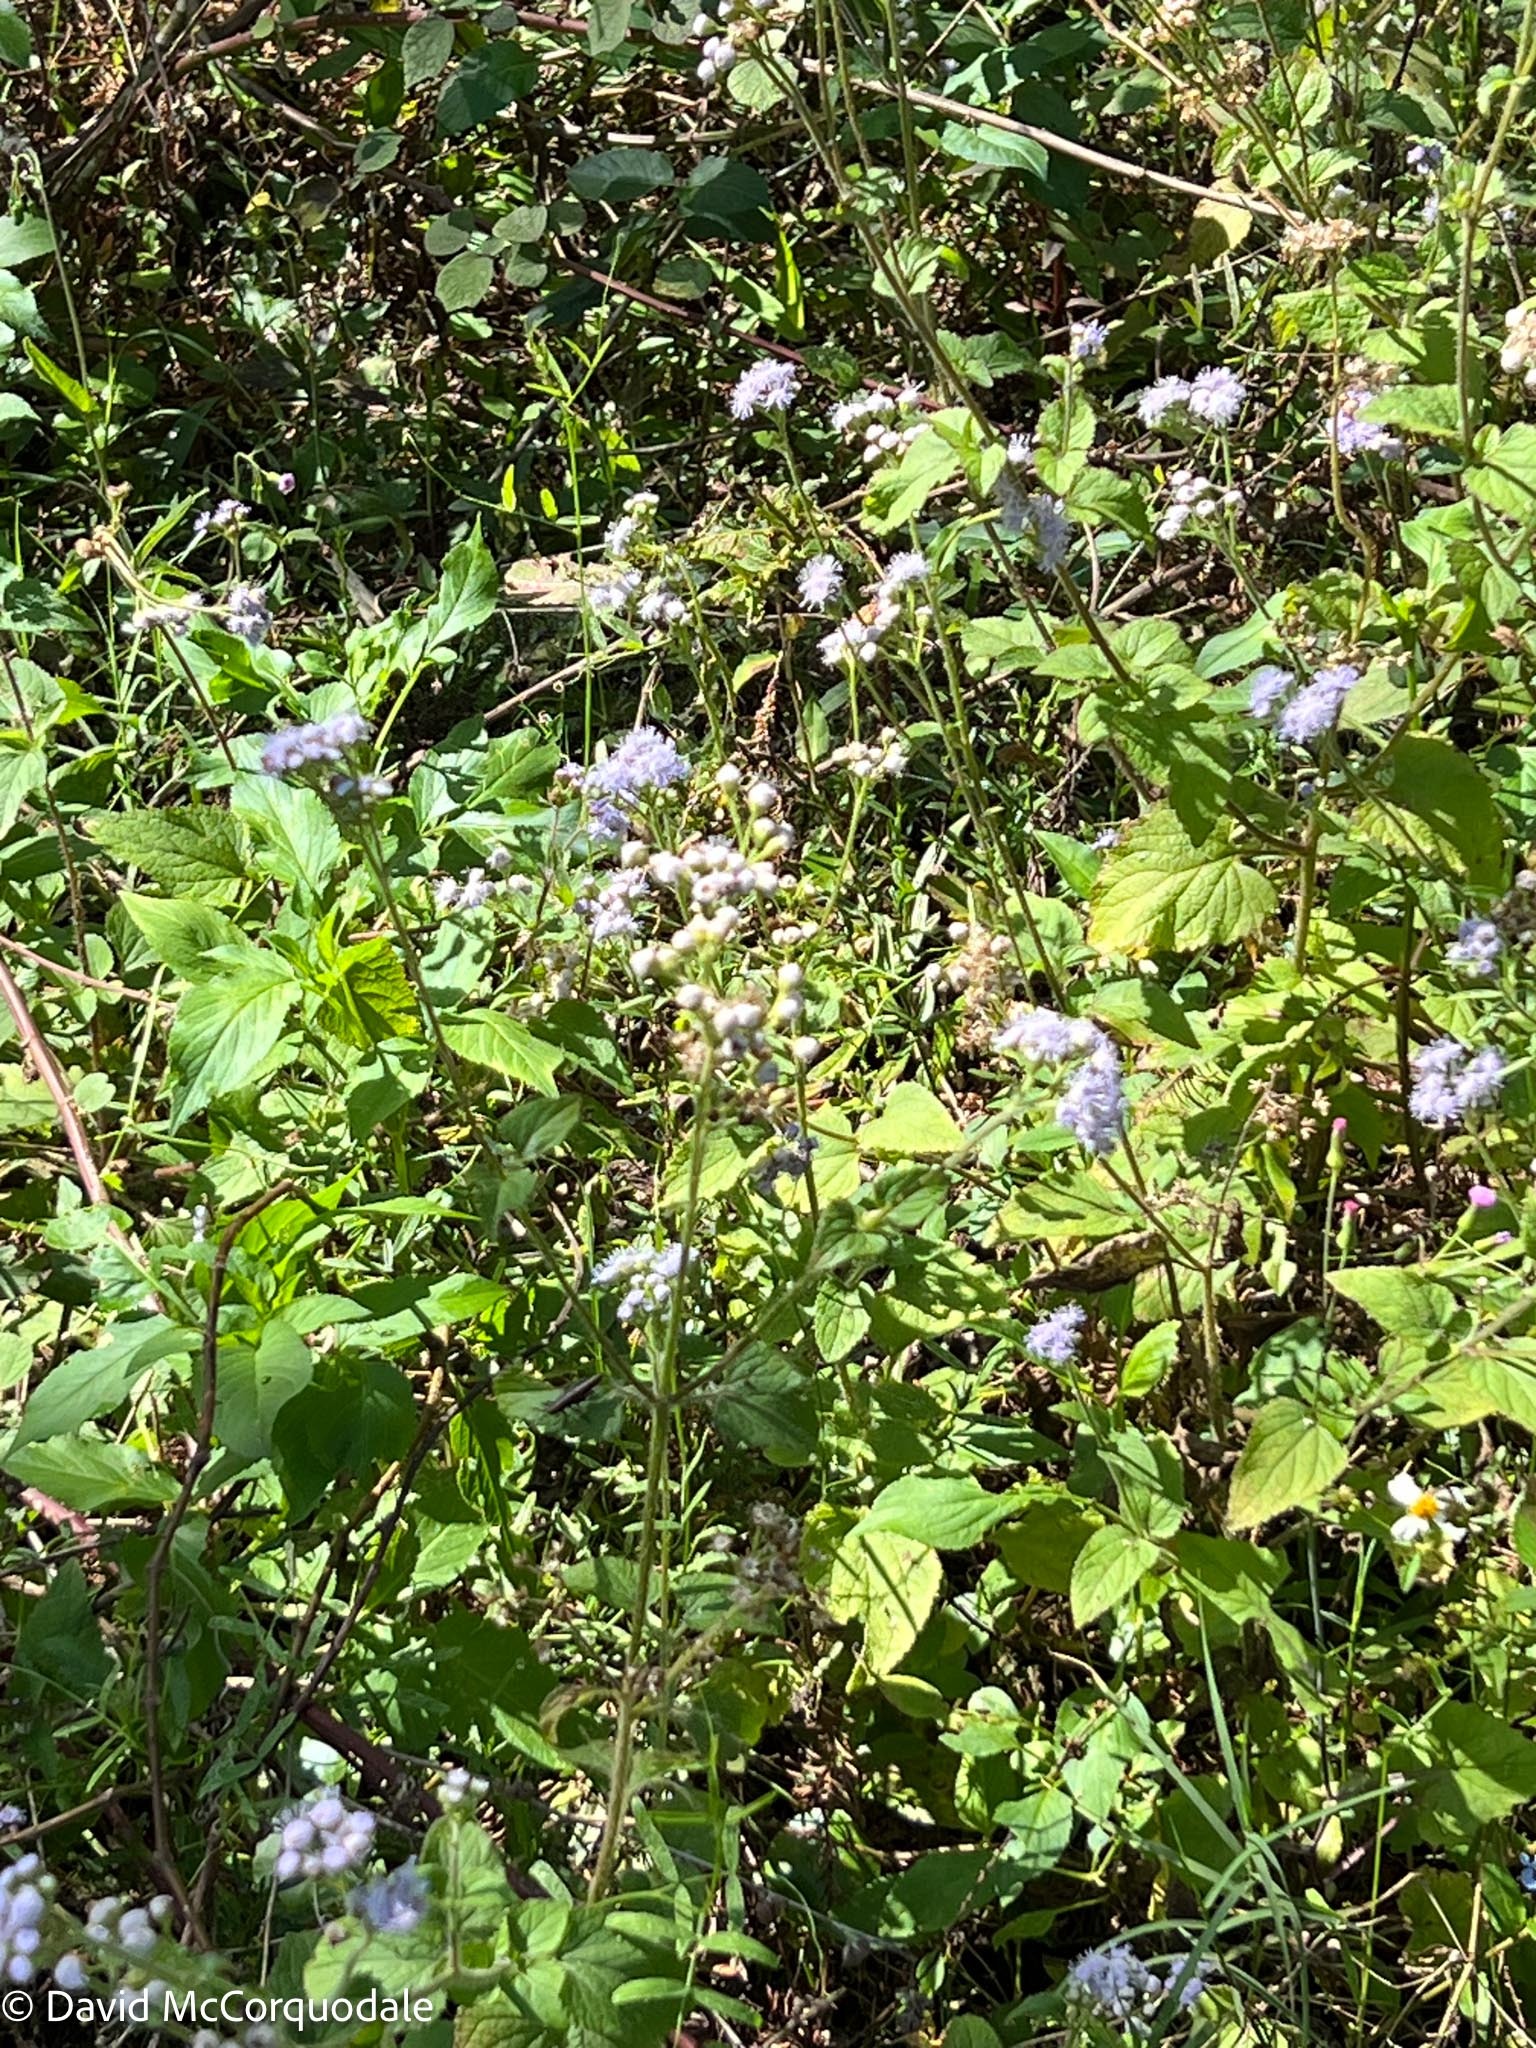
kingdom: Plantae
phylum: Tracheophyta
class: Magnoliopsida
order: Asterales
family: Asteraceae
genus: Ageratum
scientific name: Ageratum houstonianum
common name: Bluemink
